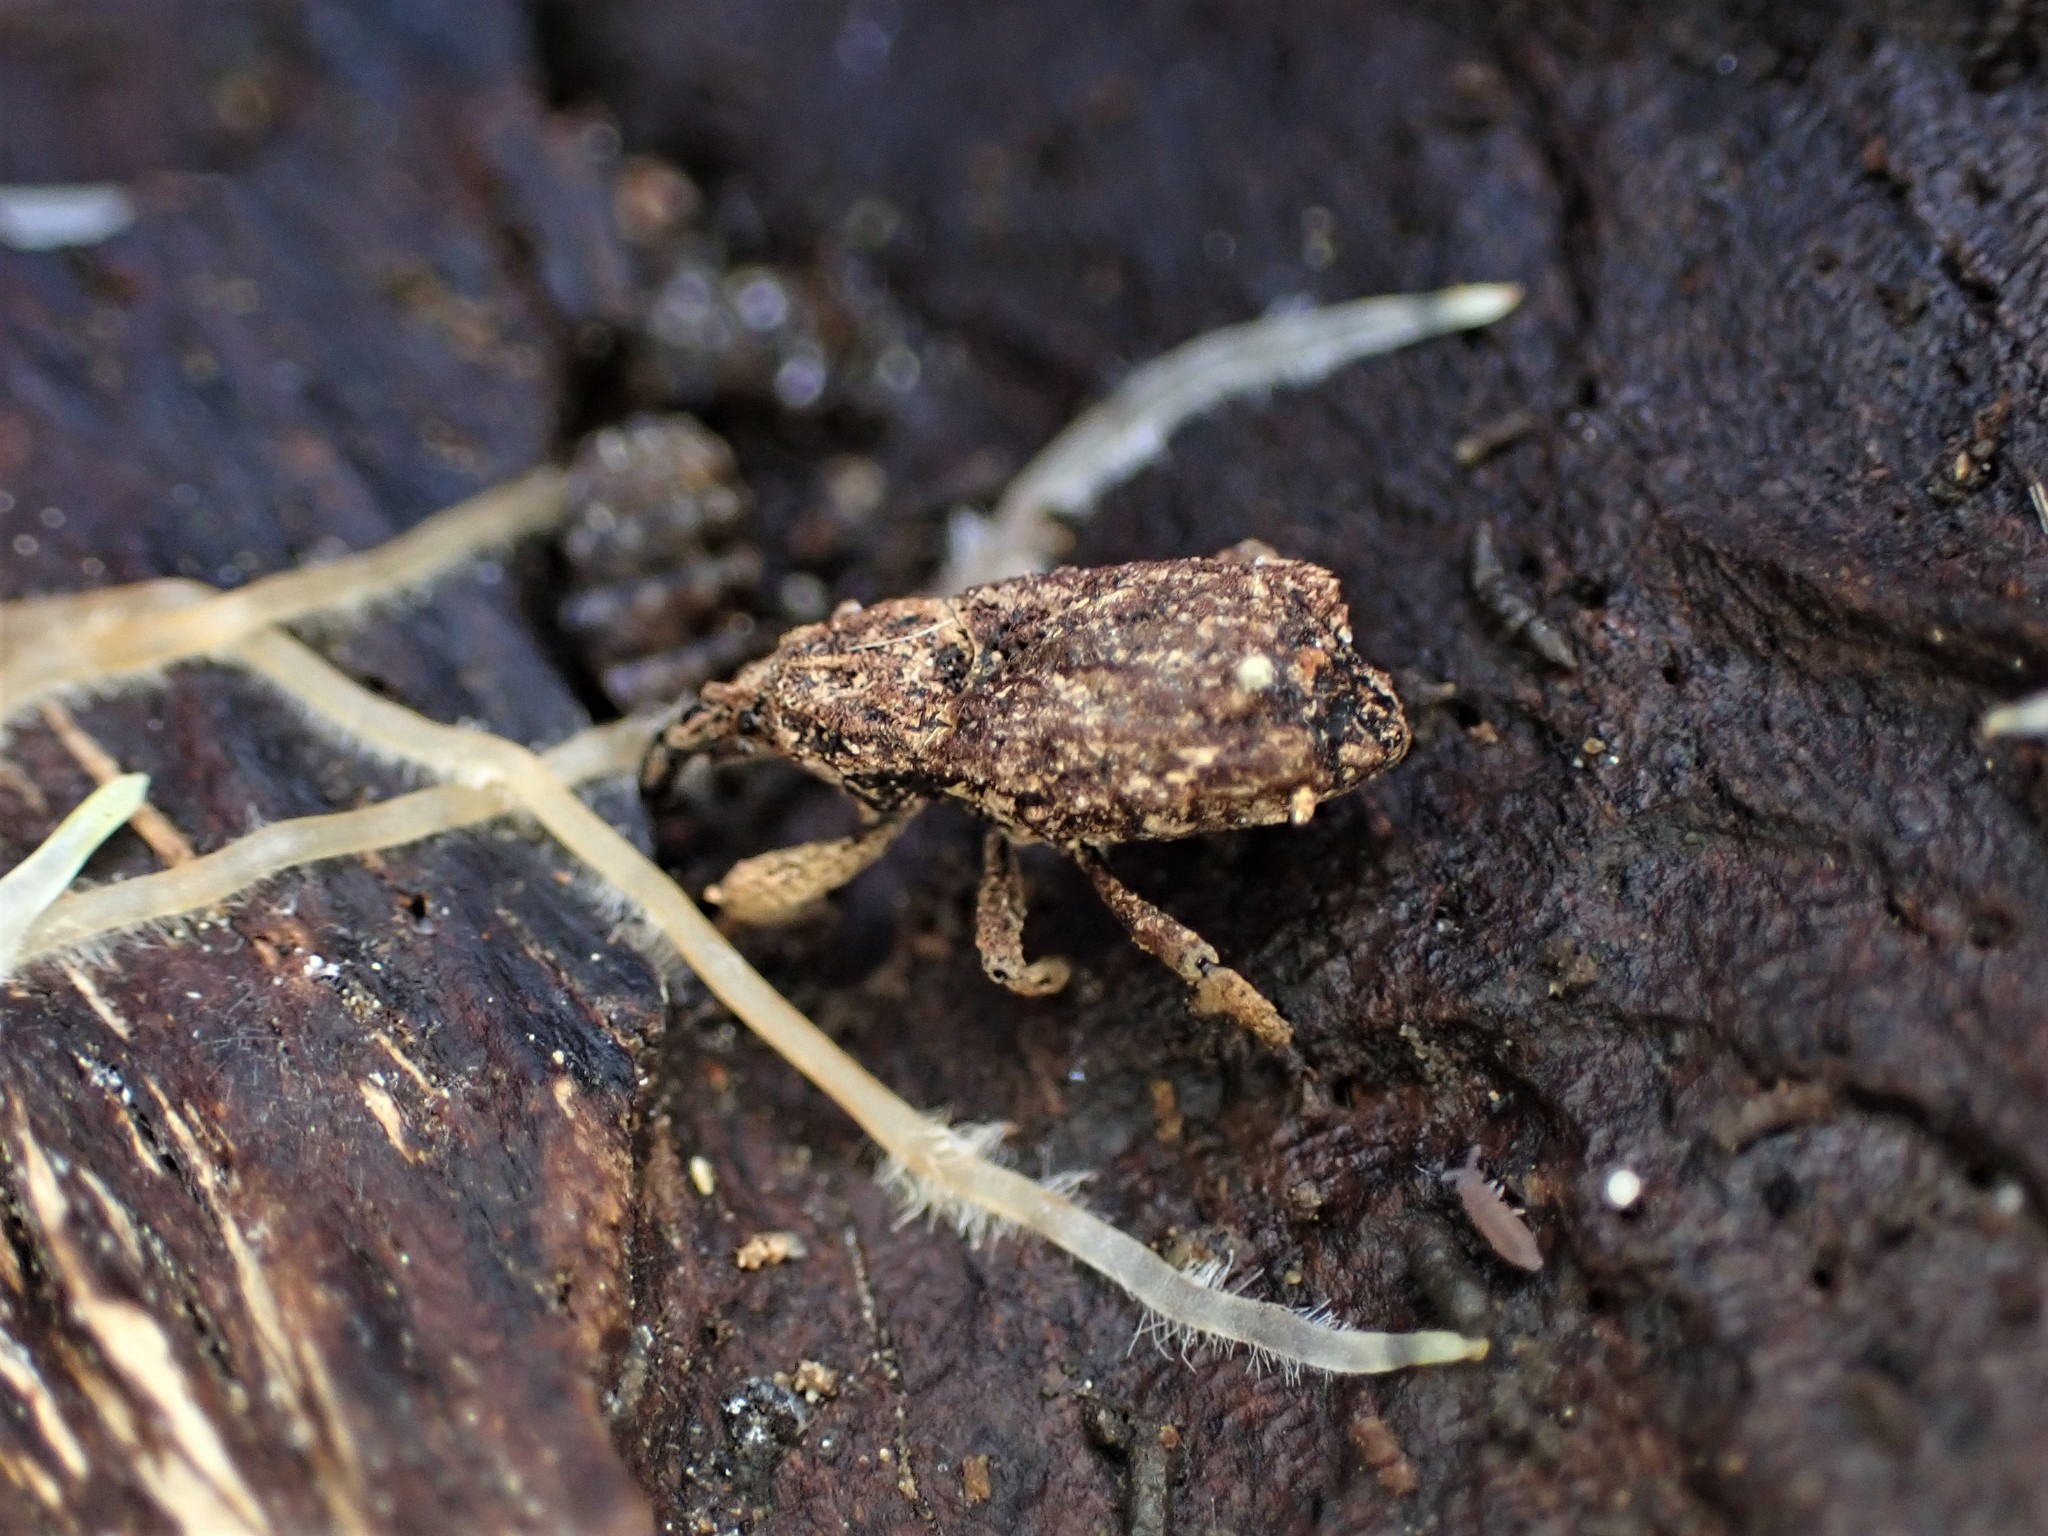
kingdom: Animalia
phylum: Arthropoda
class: Insecta
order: Coleoptera
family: Curculionidae
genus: Styphlotelus
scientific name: Styphlotelus fascicularis
